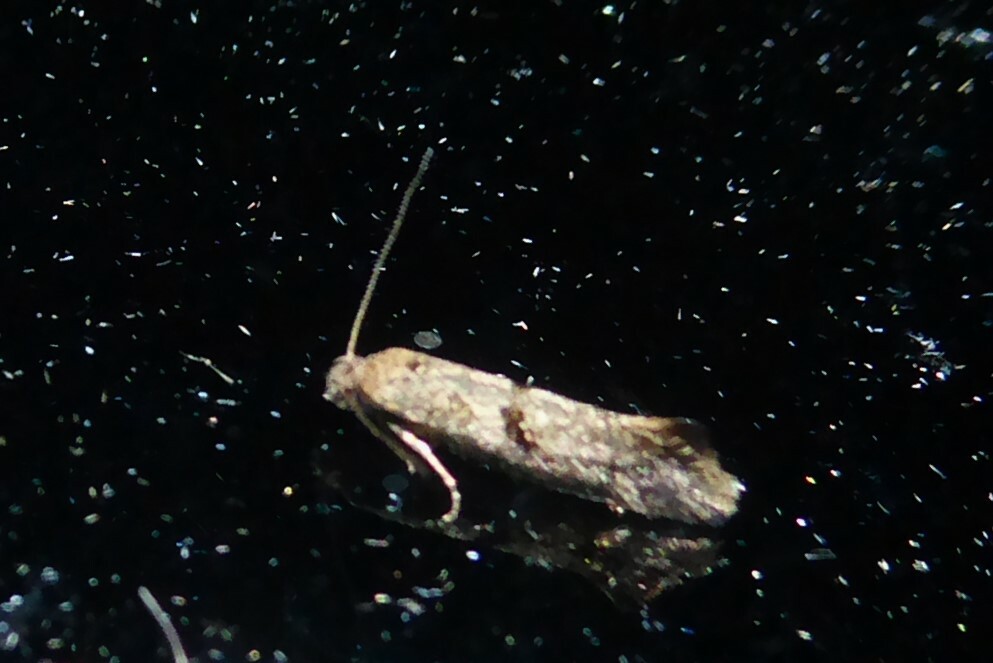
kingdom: Animalia
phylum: Arthropoda
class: Insecta
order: Lepidoptera
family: Tineidae
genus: Tinea
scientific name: Tinea mochlota
